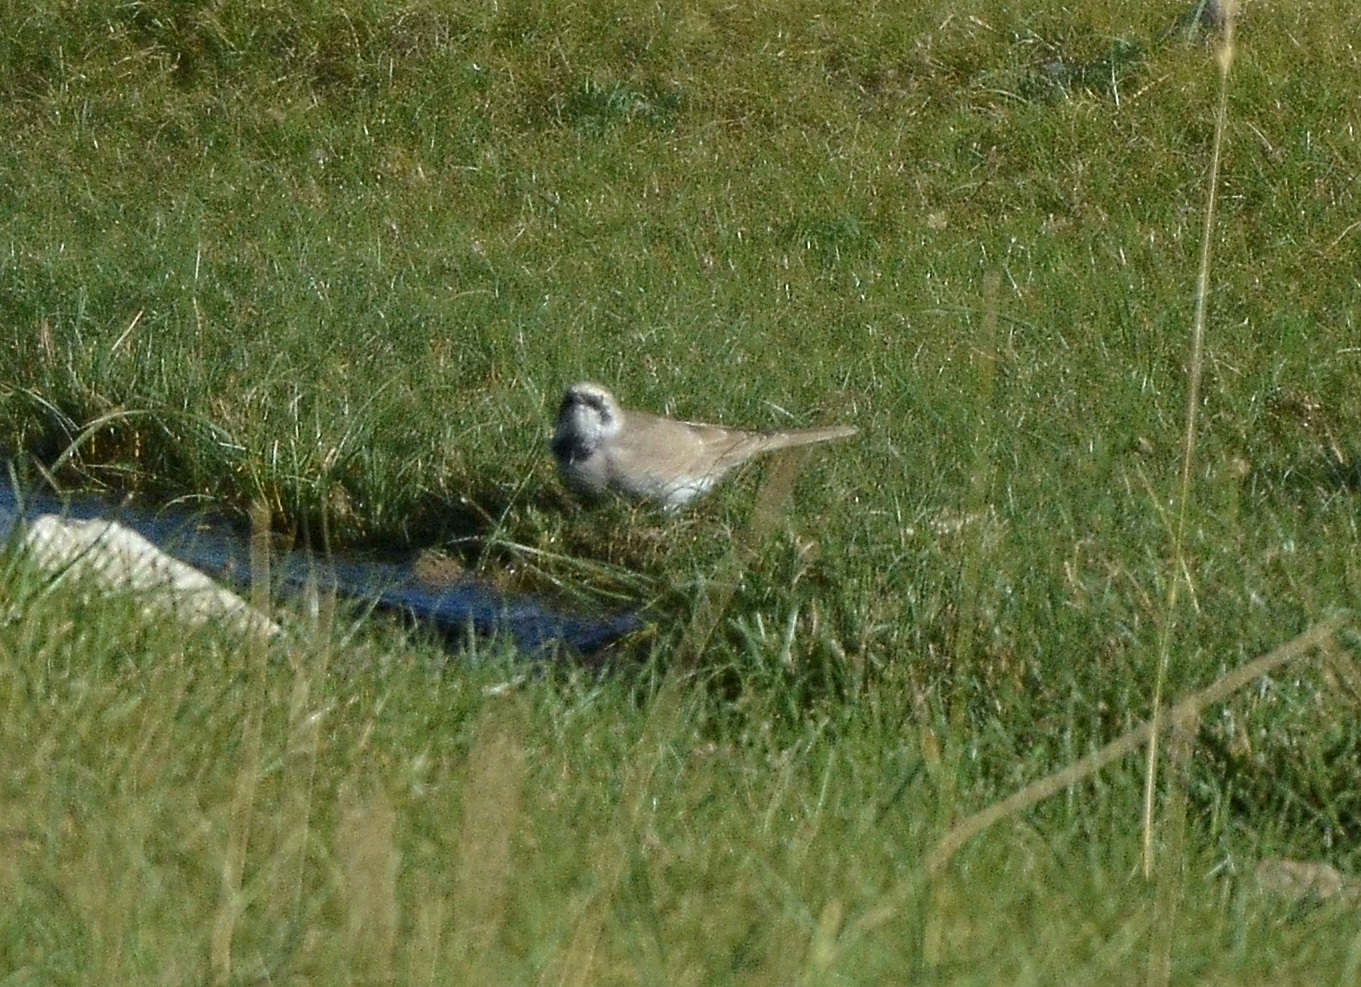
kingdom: Animalia
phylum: Chordata
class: Aves
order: Passeriformes
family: Alaudidae
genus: Eremophila
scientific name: Eremophila alpestris
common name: Horned lark
